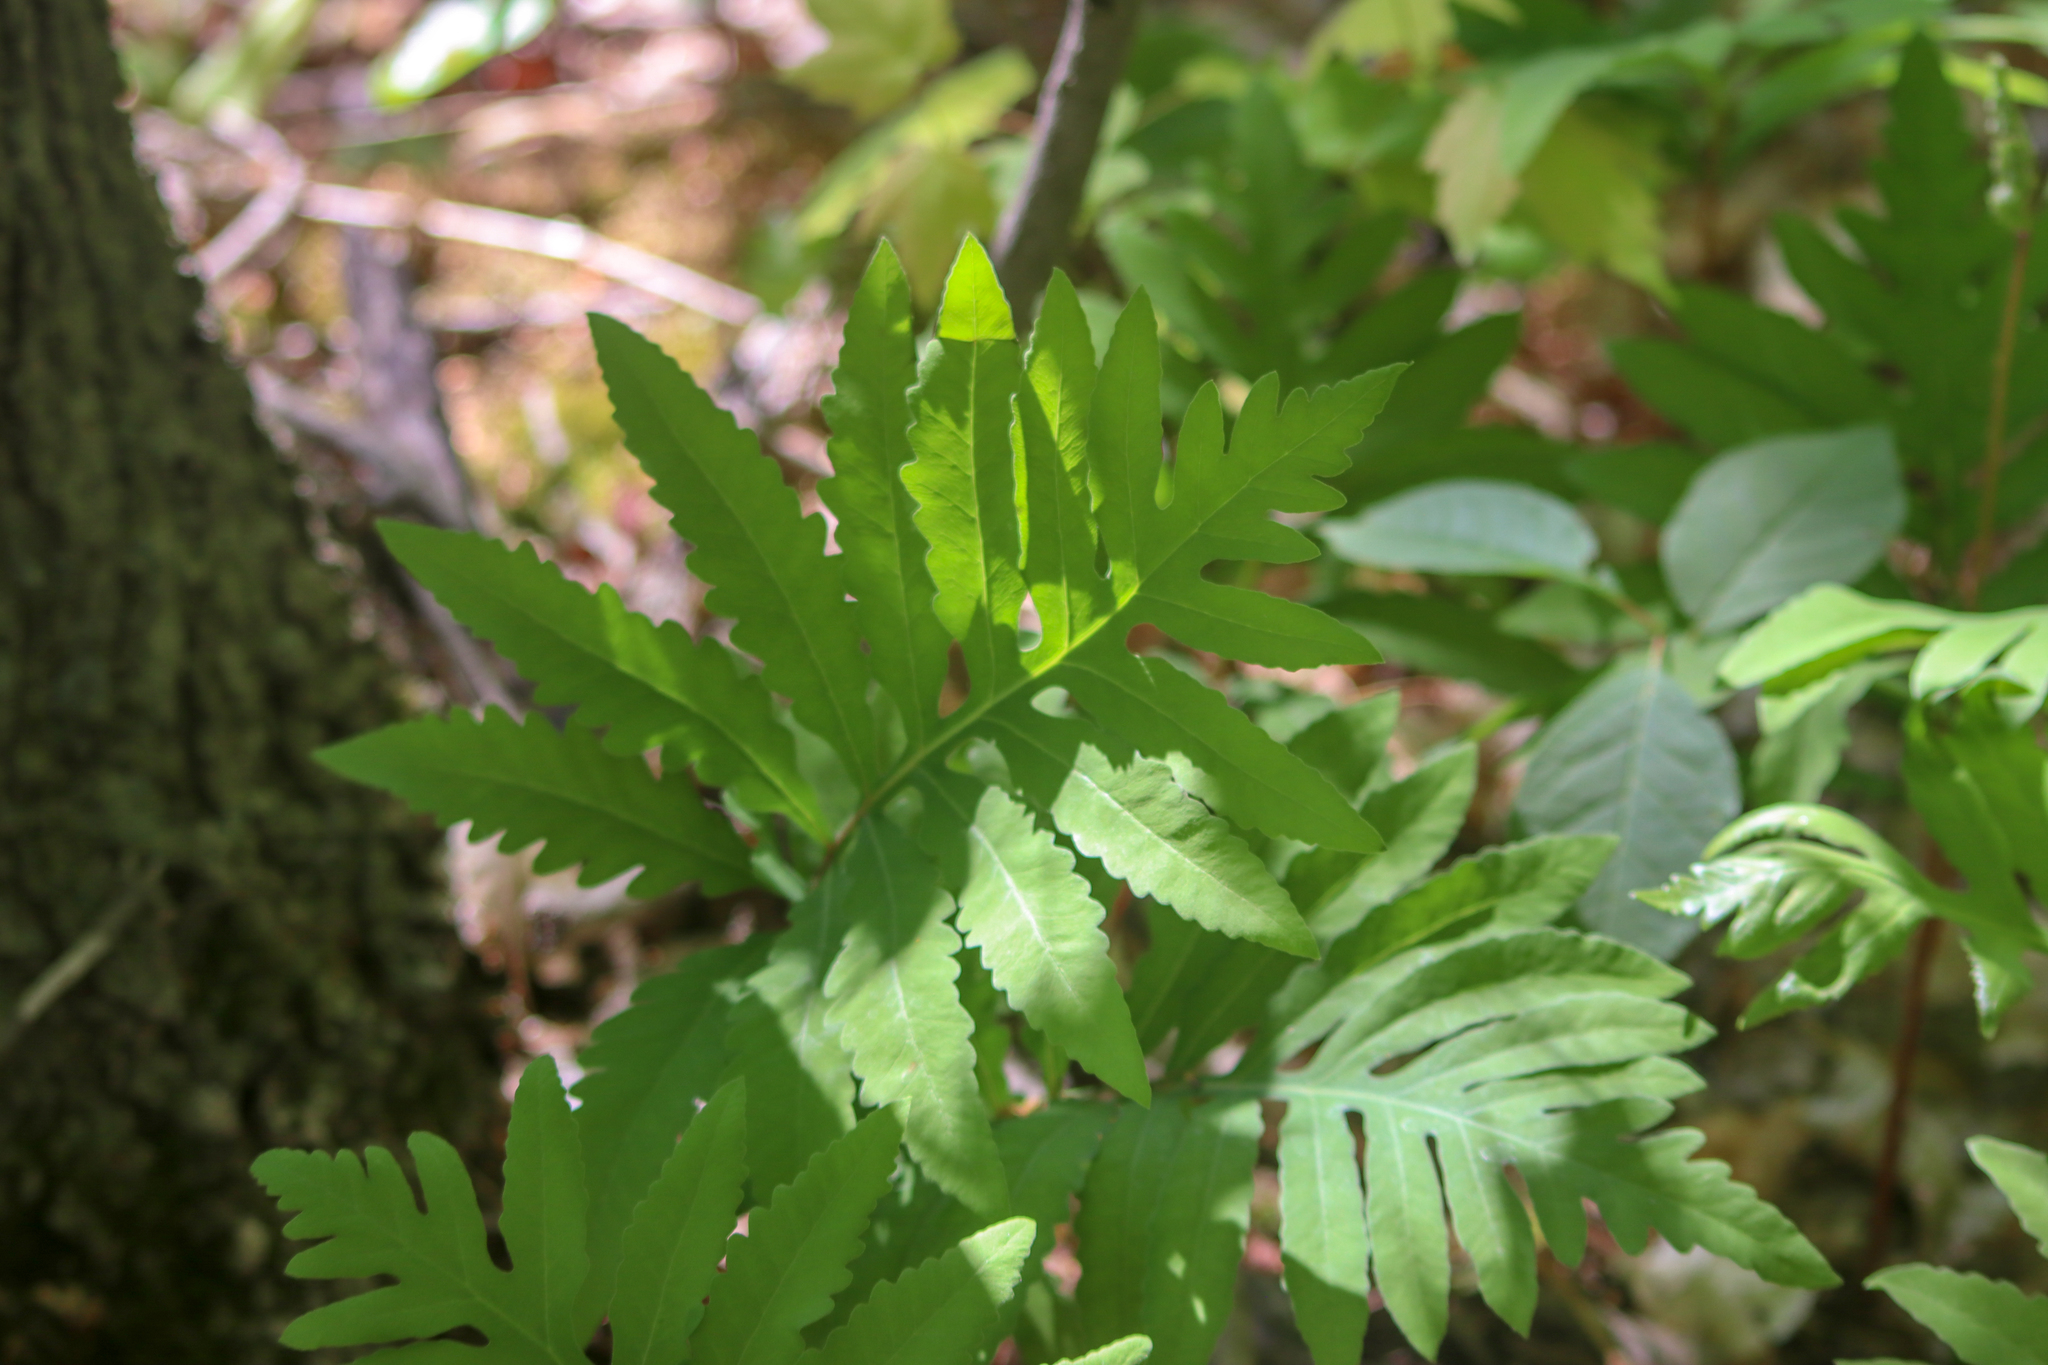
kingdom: Plantae
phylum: Tracheophyta
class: Polypodiopsida
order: Polypodiales
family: Onocleaceae
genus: Onoclea
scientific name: Onoclea sensibilis
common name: Sensitive fern
